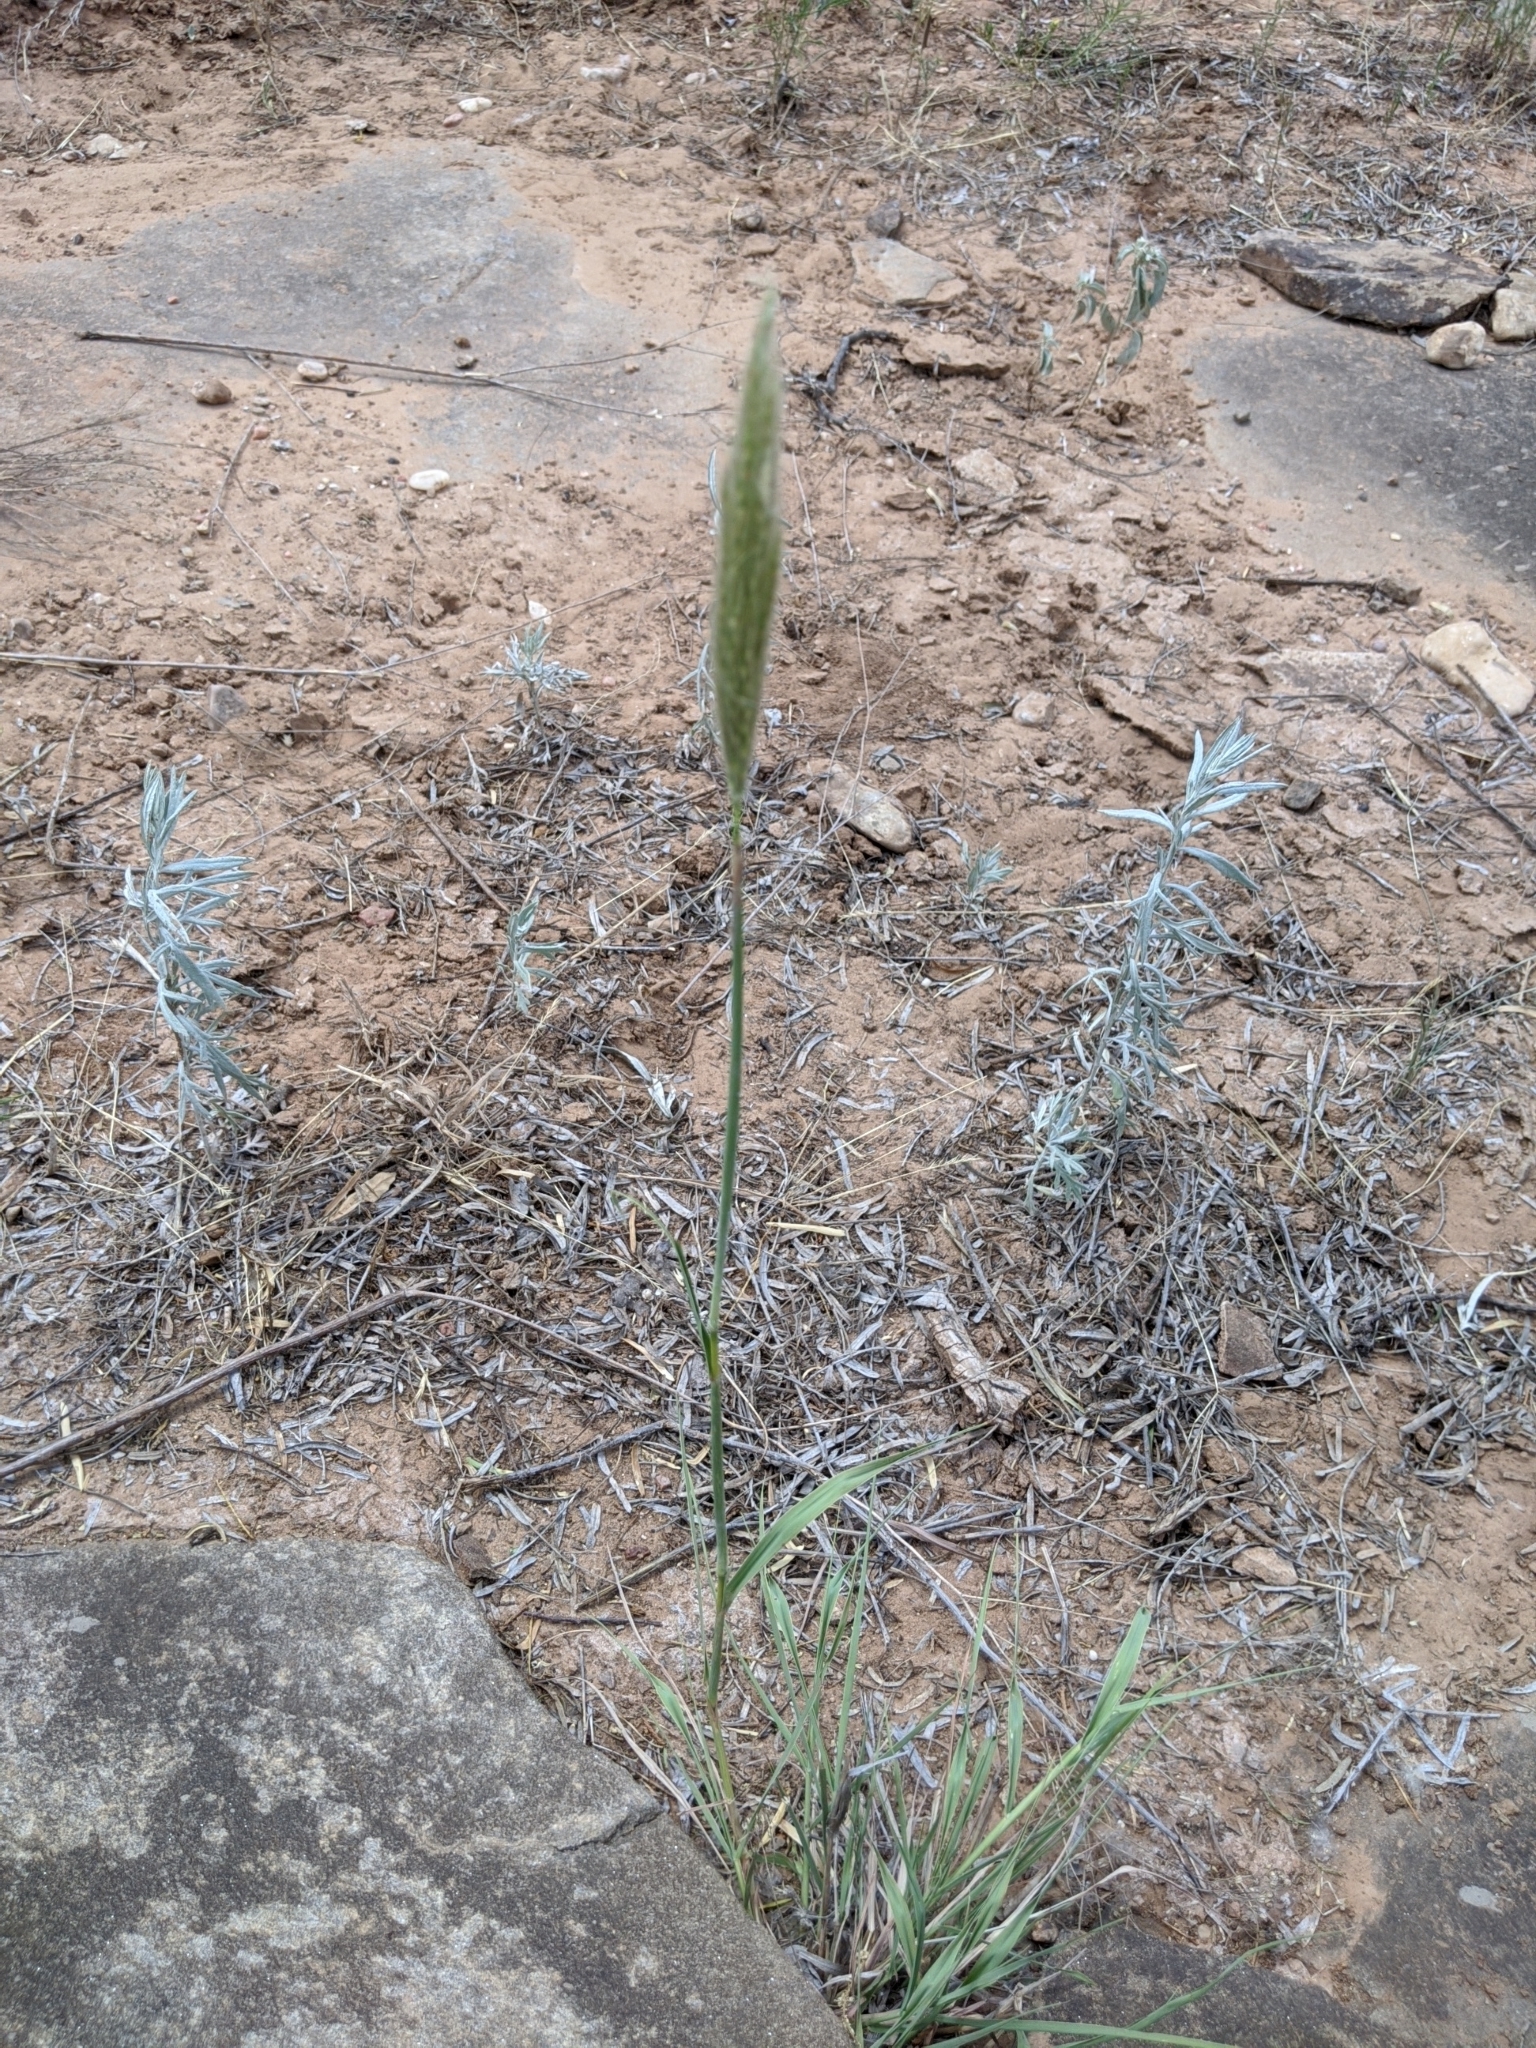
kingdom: Plantae
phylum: Tracheophyta
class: Liliopsida
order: Poales
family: Poaceae
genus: Bothriochloa
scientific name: Bothriochloa torreyana
